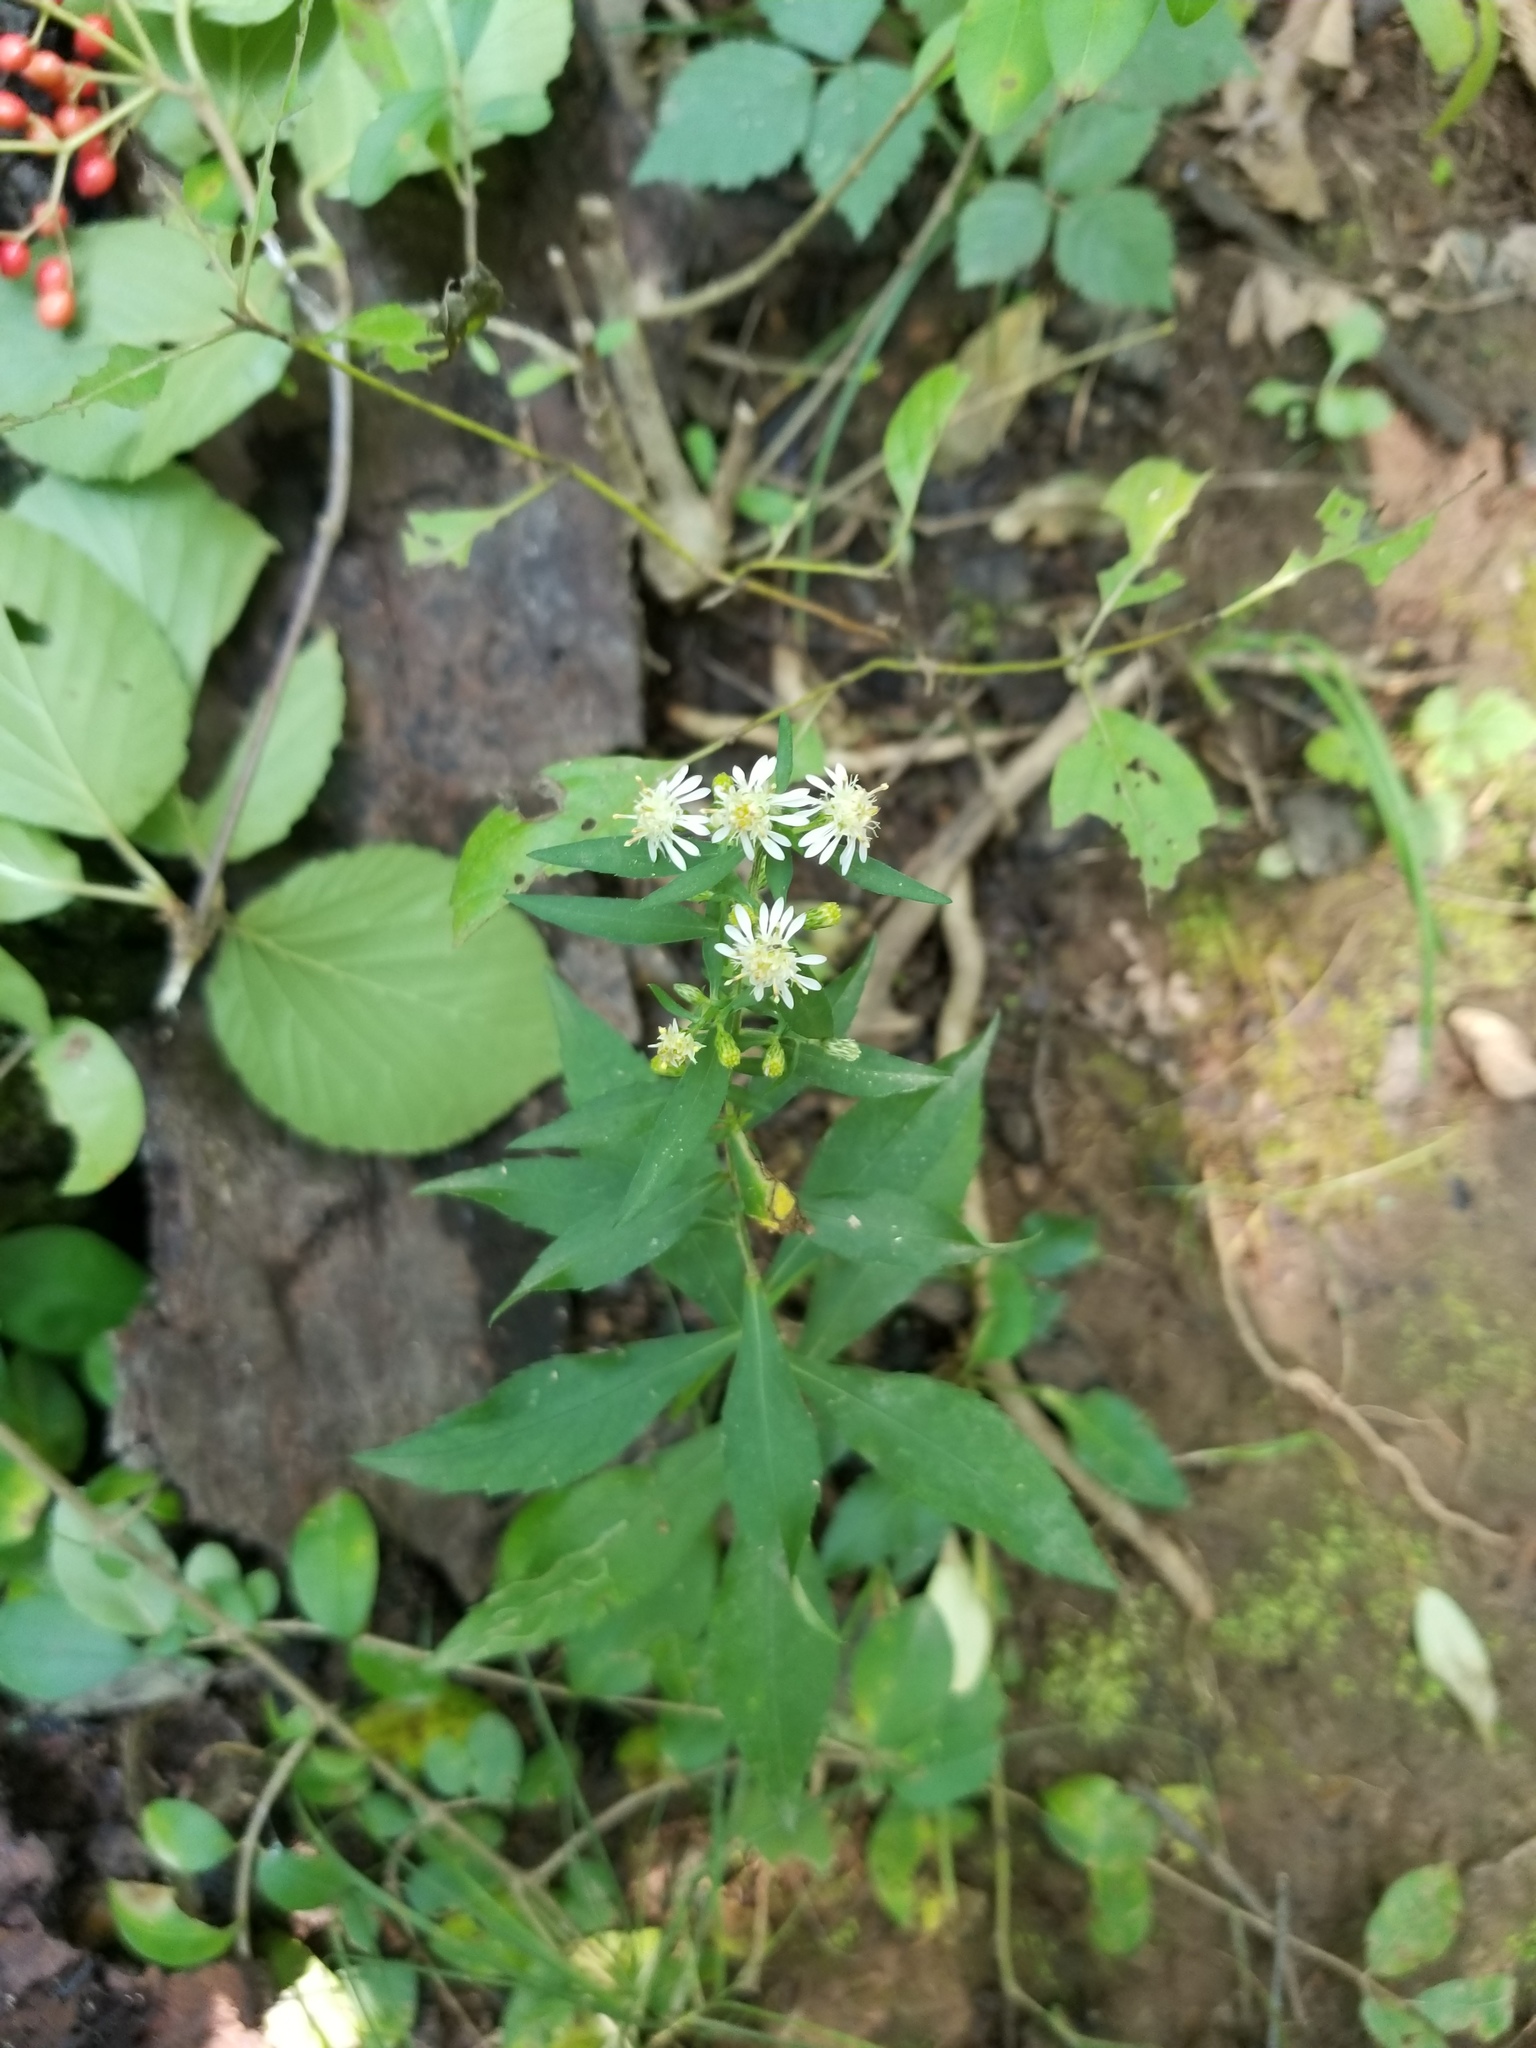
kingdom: Plantae
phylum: Tracheophyta
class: Magnoliopsida
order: Asterales
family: Asteraceae
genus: Symphyotrichum
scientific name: Symphyotrichum lateriflorum
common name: Calico aster
